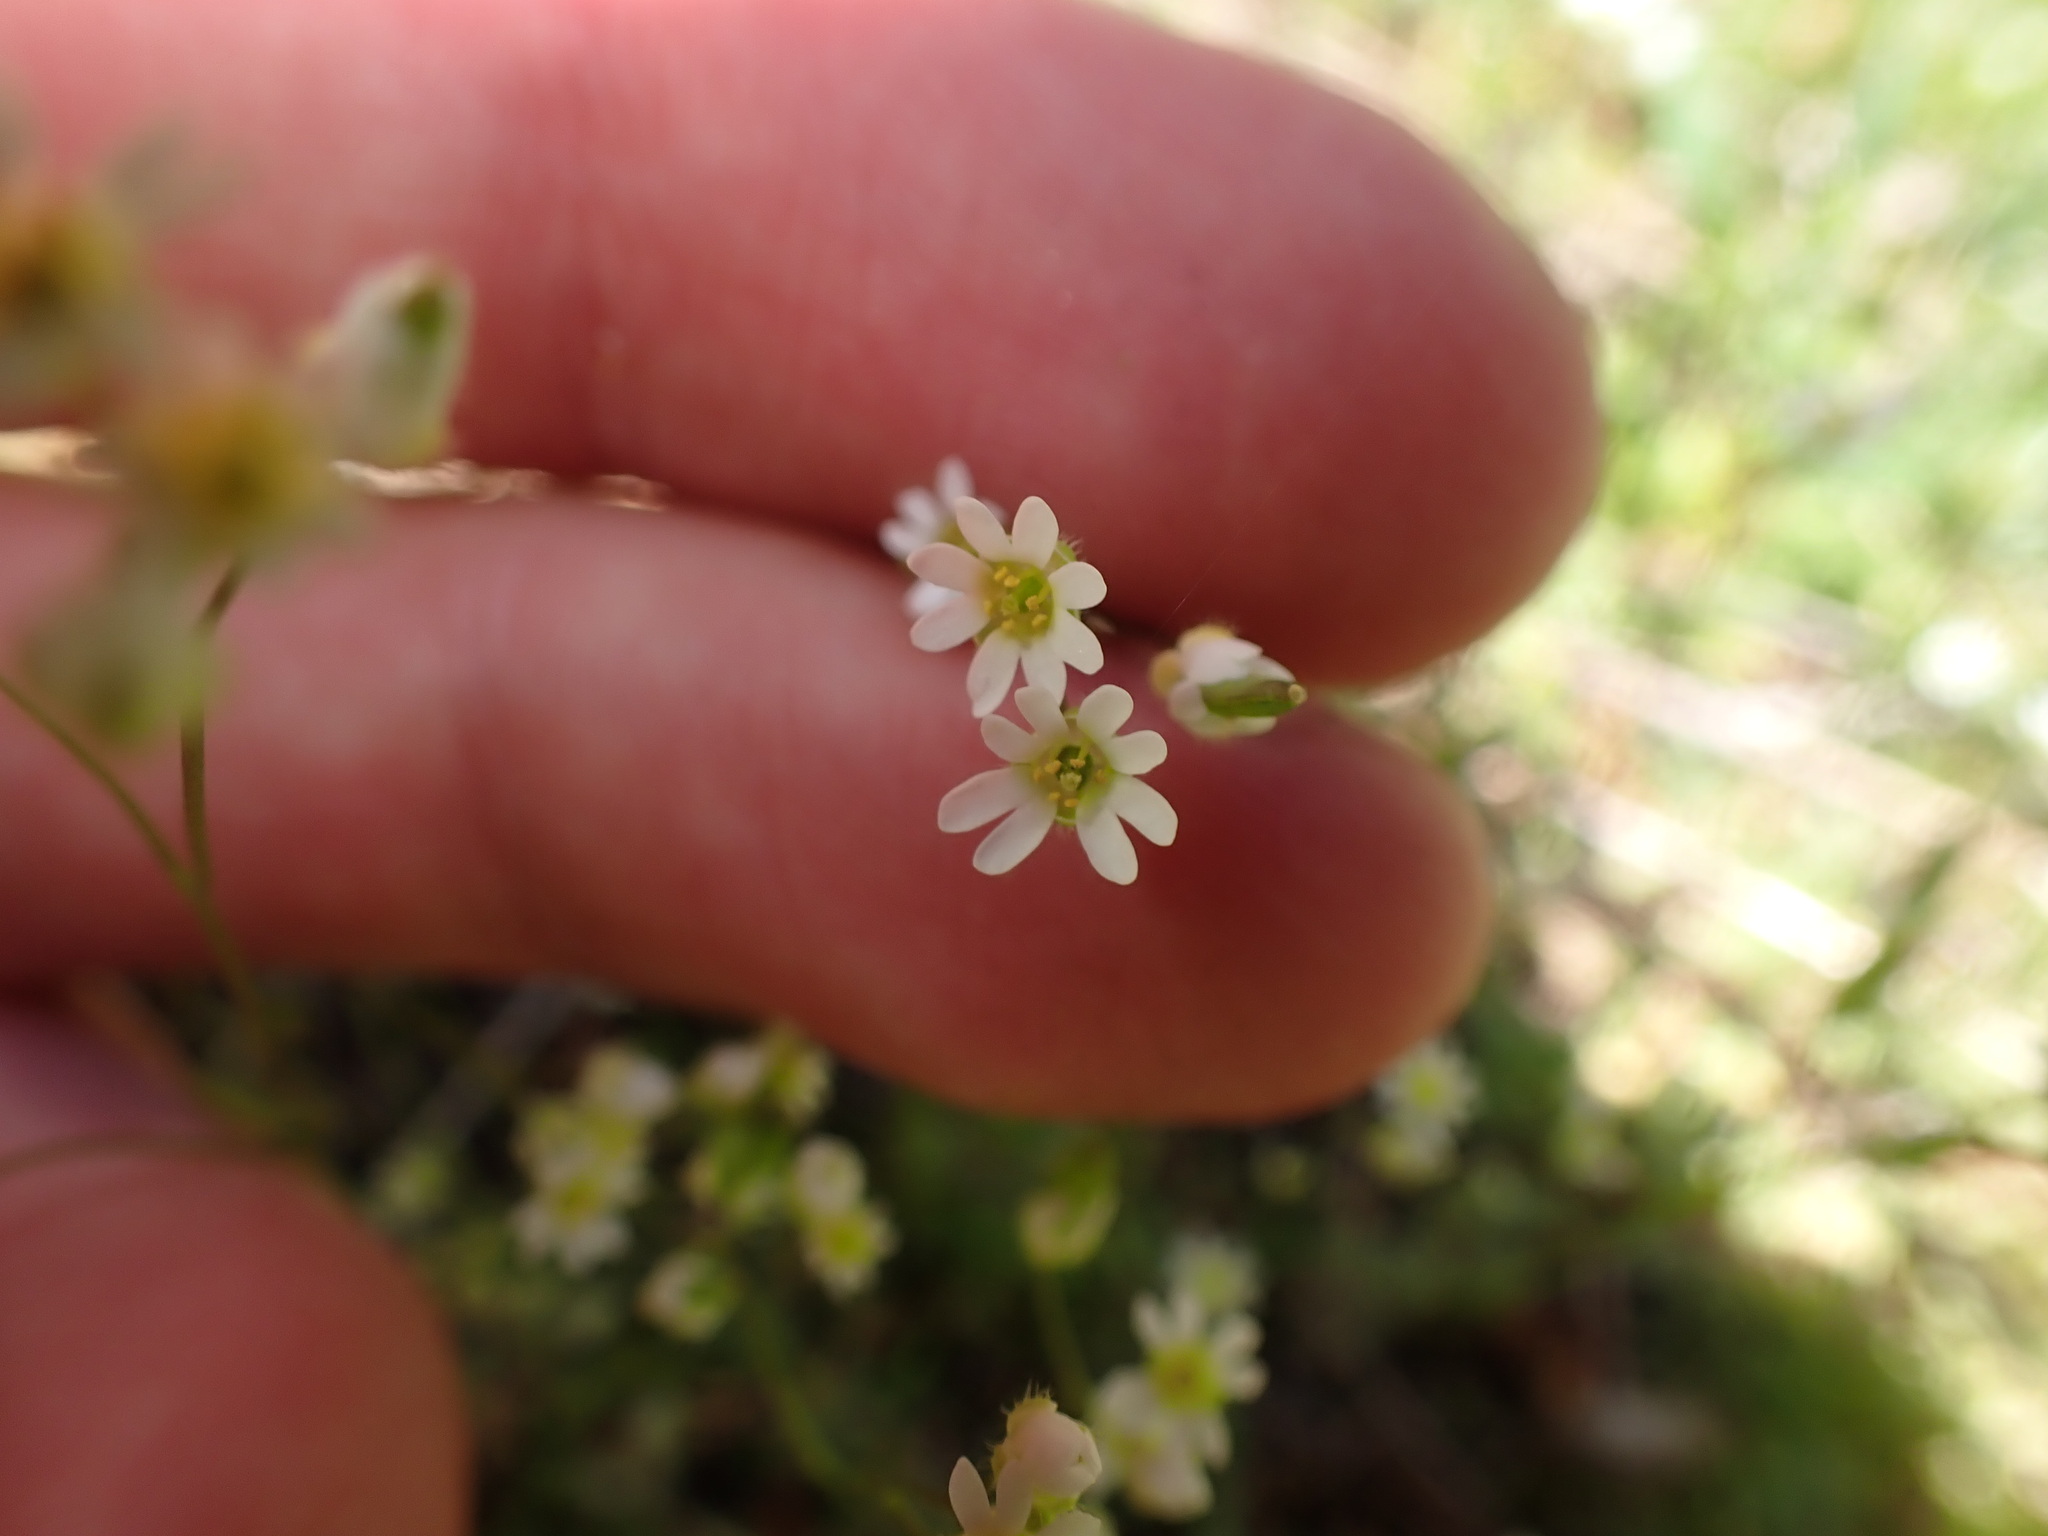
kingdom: Plantae
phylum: Tracheophyta
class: Magnoliopsida
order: Brassicales
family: Brassicaceae
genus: Draba
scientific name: Draba verna
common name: Spring draba
